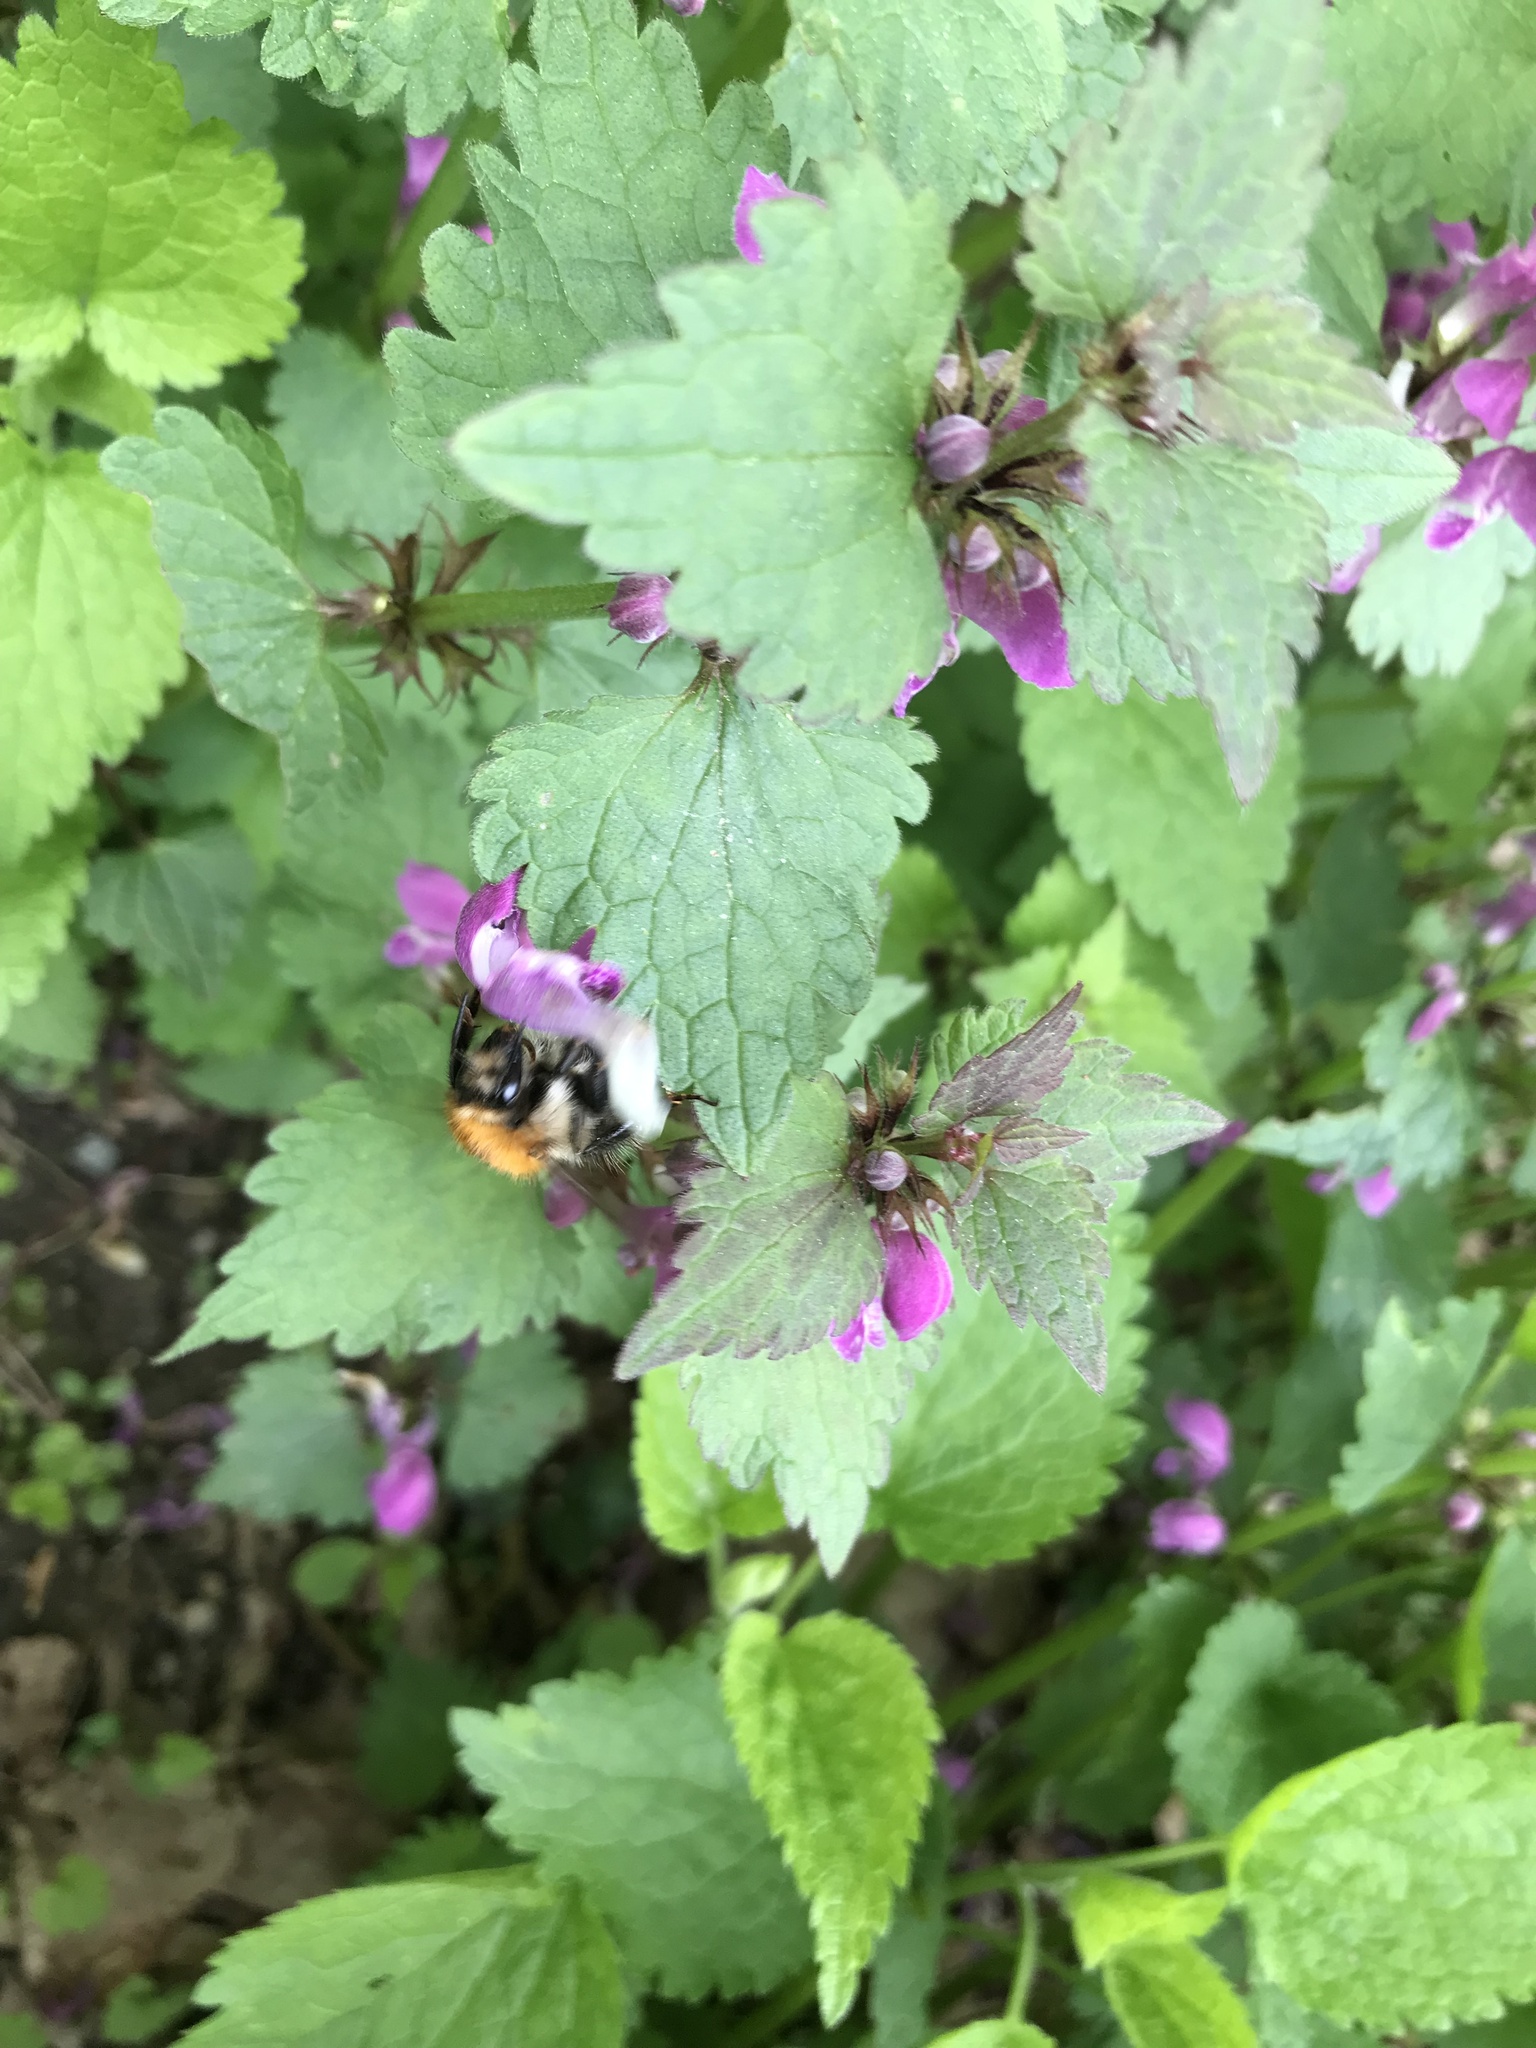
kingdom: Animalia
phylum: Arthropoda
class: Insecta
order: Hymenoptera
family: Apidae
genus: Bombus
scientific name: Bombus pascuorum
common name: Common carder bee
